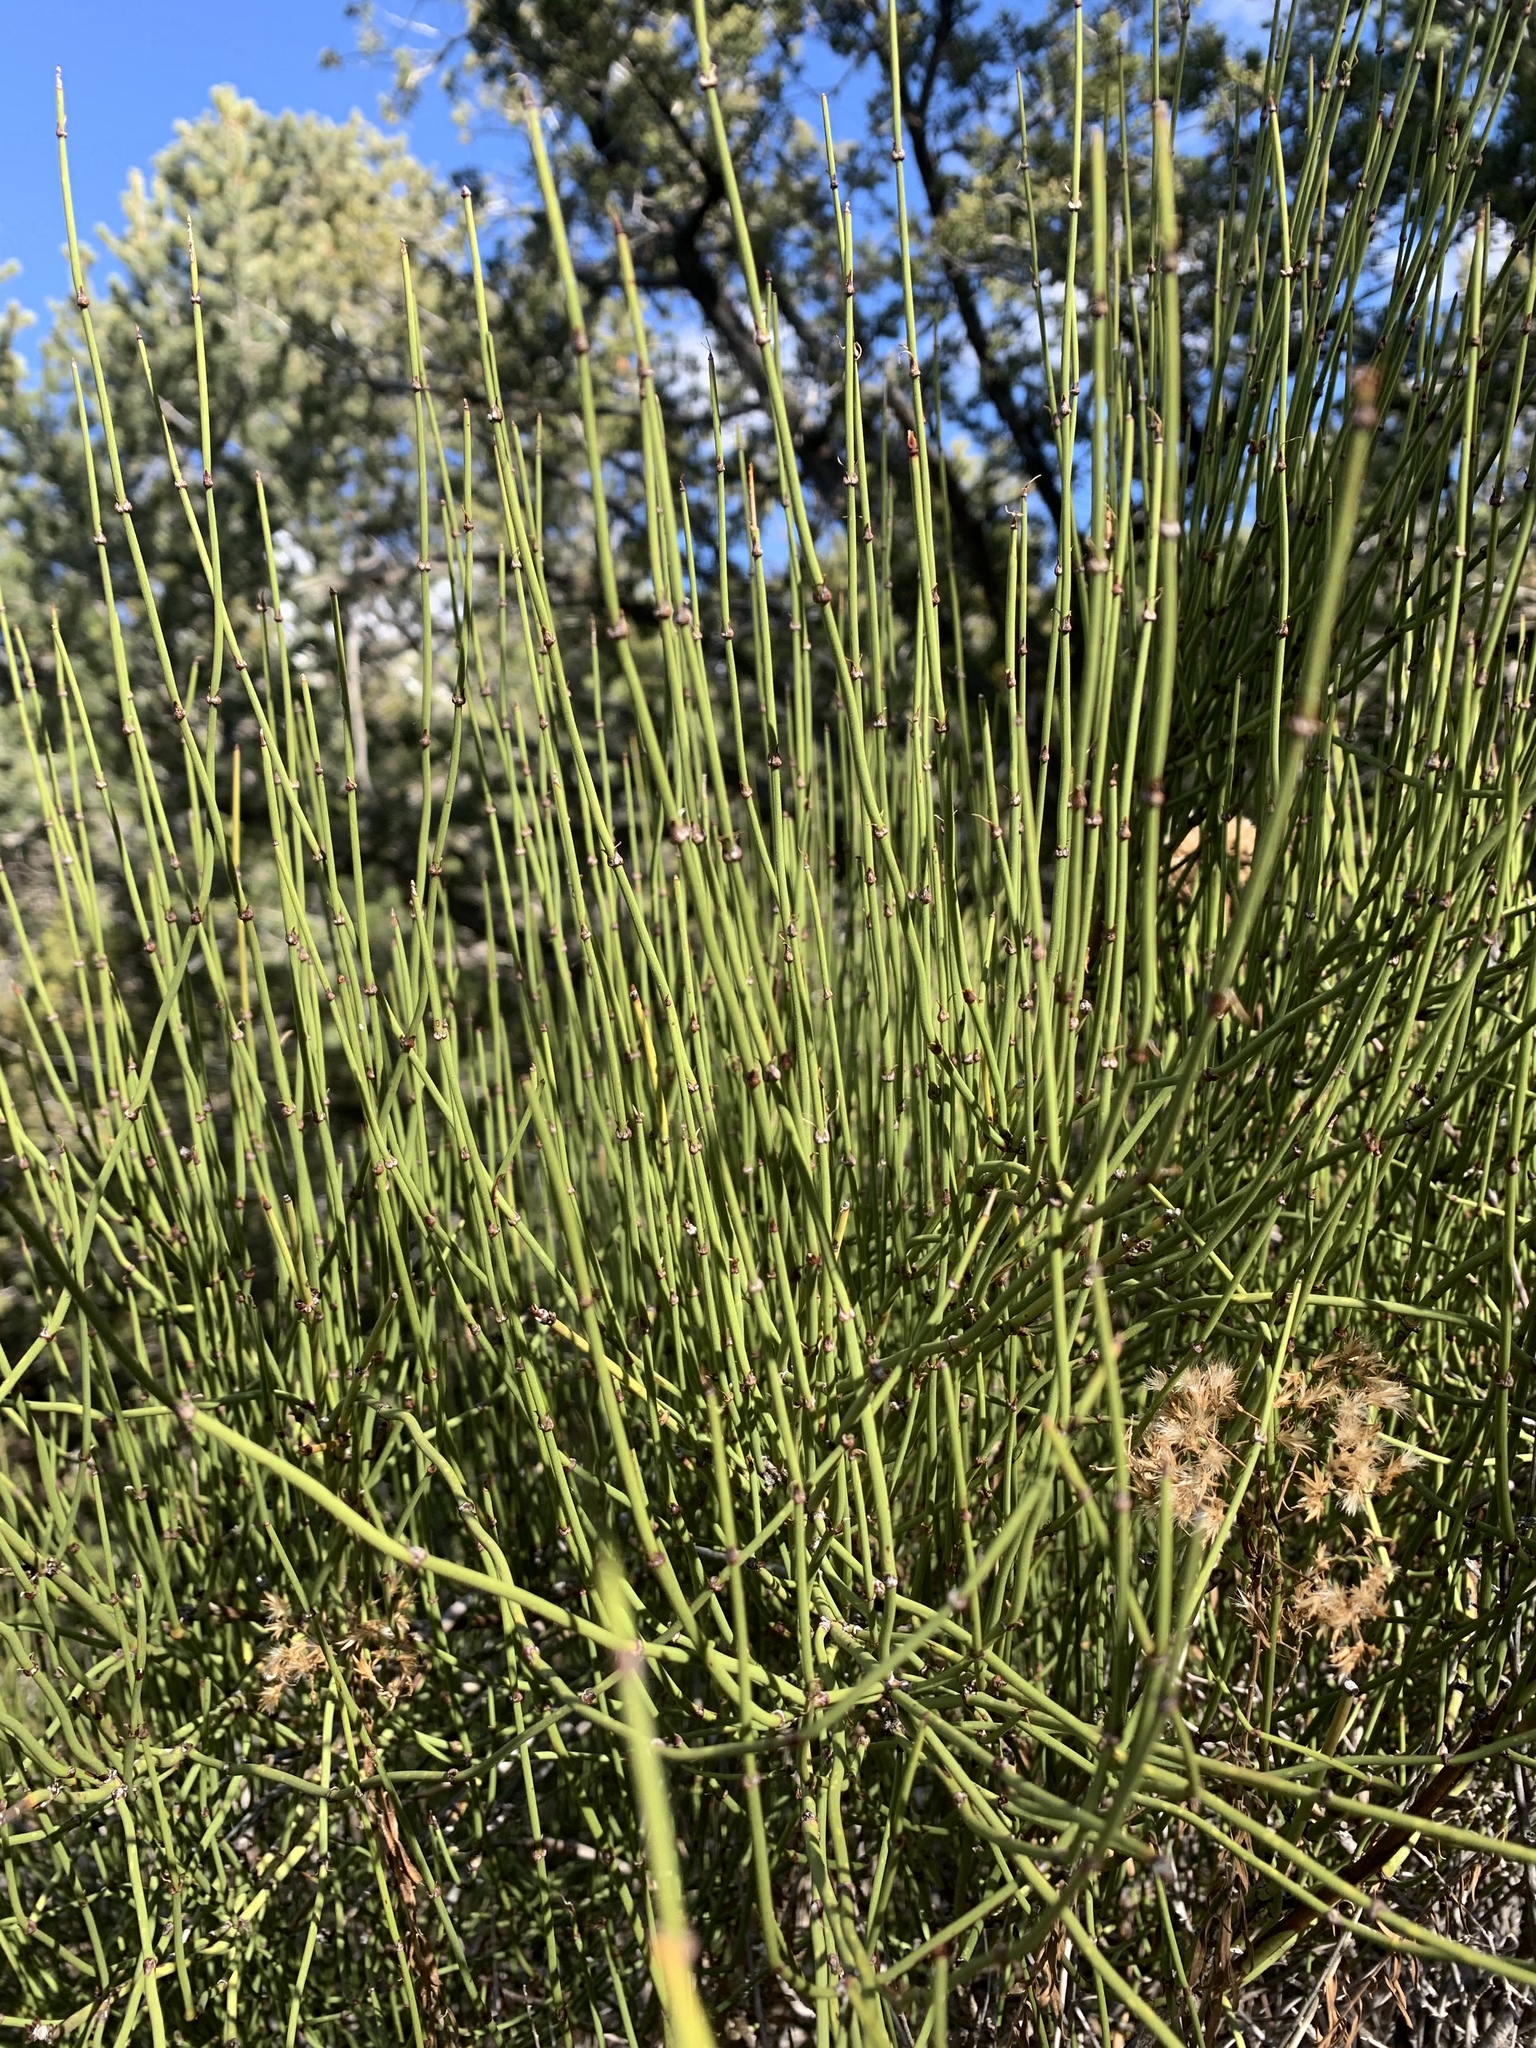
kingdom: Plantae
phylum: Tracheophyta
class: Gnetopsida
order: Ephedrales
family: Ephedraceae
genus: Ephedra
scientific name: Ephedra viridis
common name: Green ephedra
